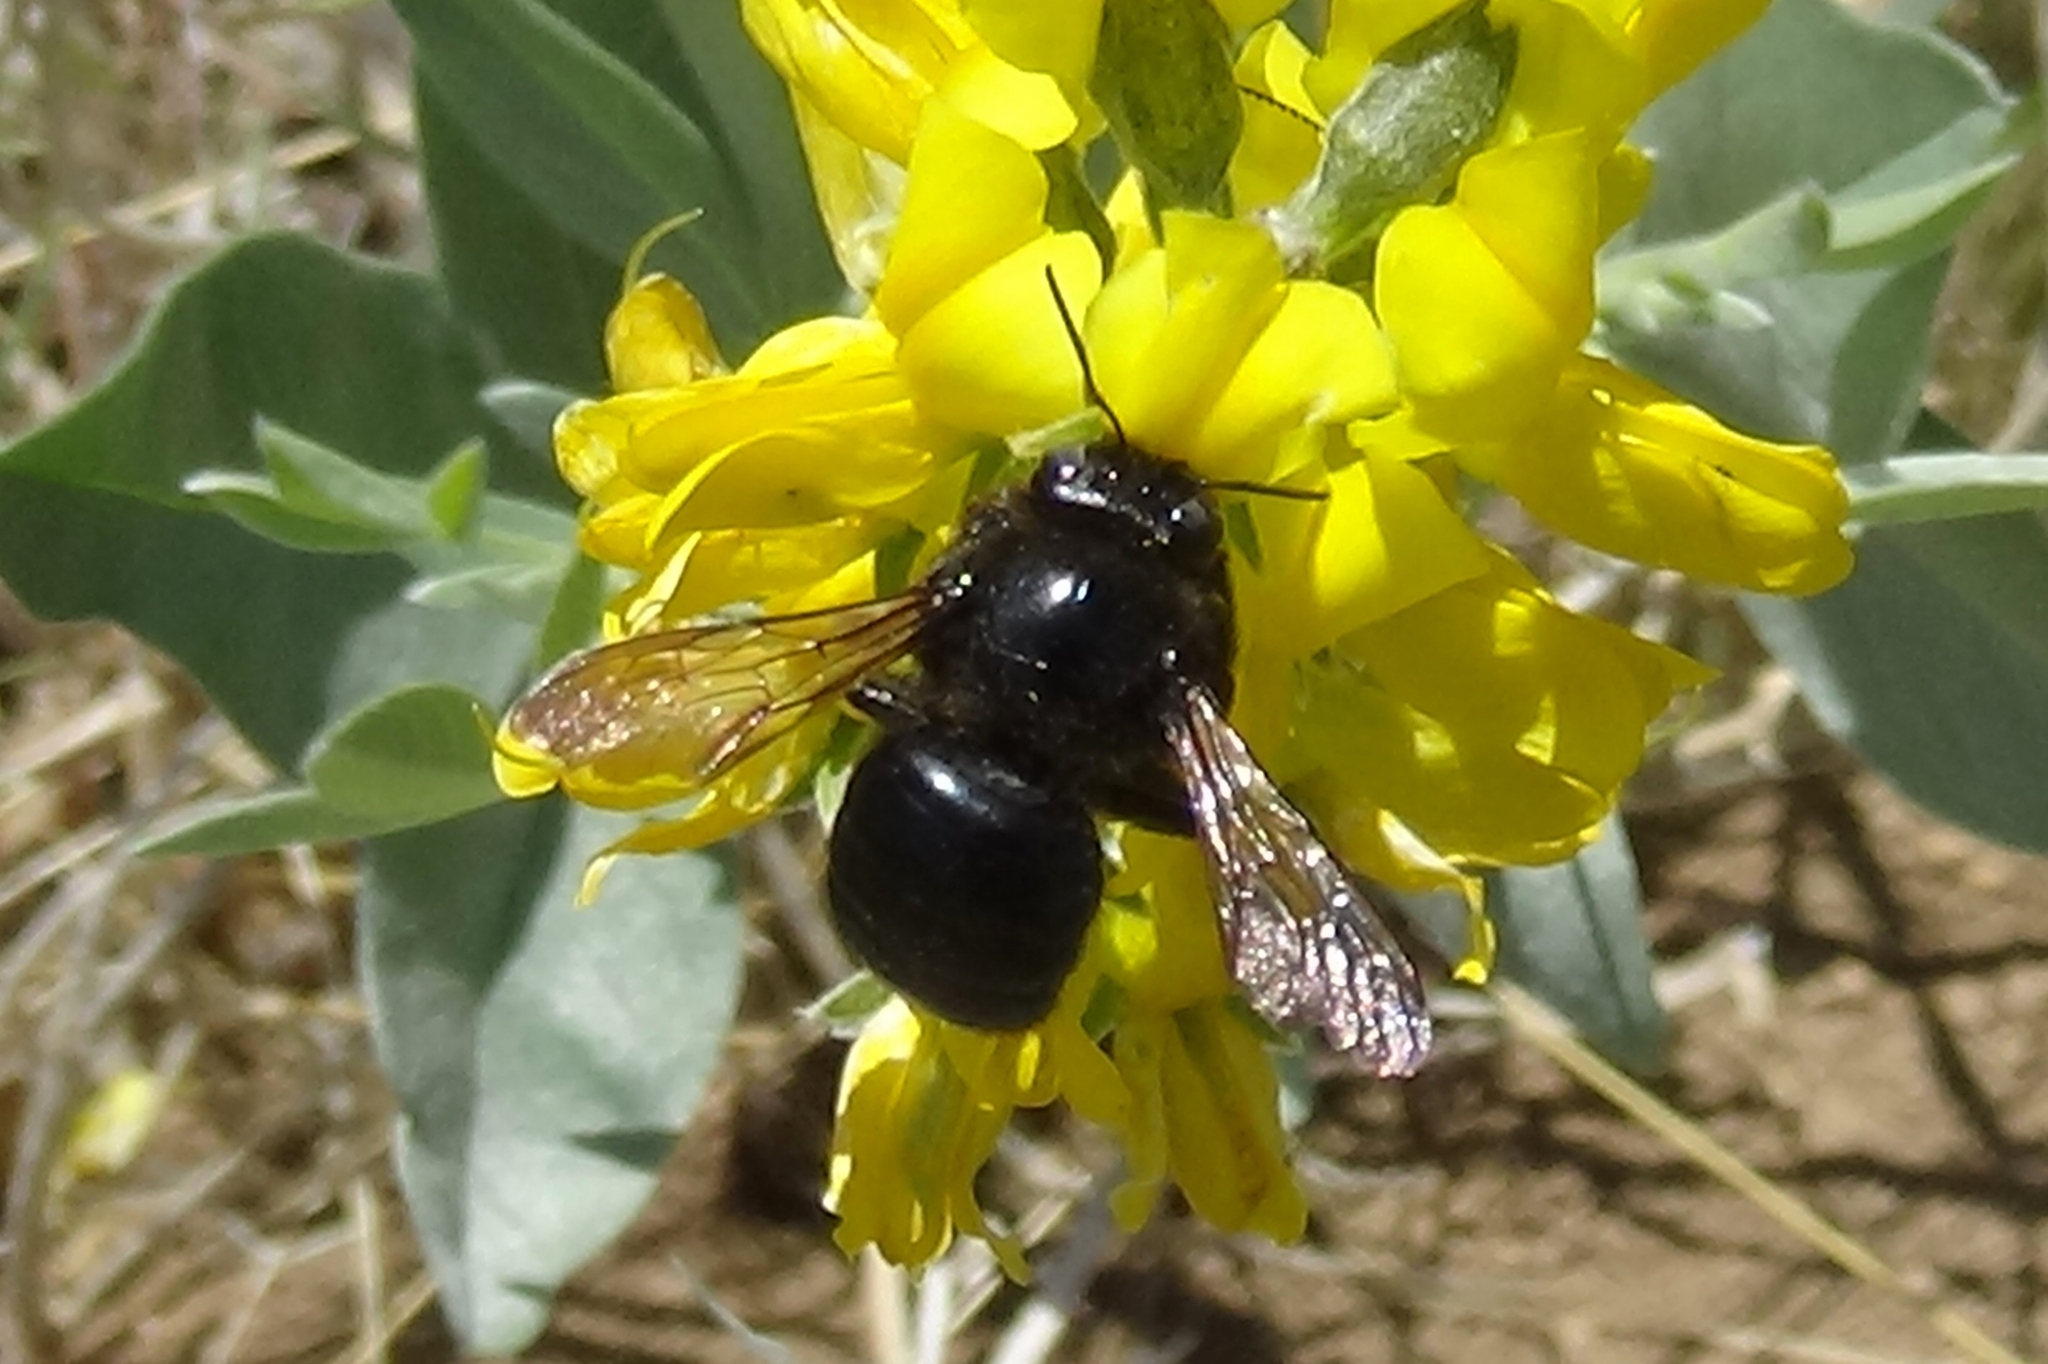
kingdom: Animalia
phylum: Arthropoda
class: Insecta
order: Hymenoptera
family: Apidae
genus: Xylocopa
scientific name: Xylocopa tabaniformis
